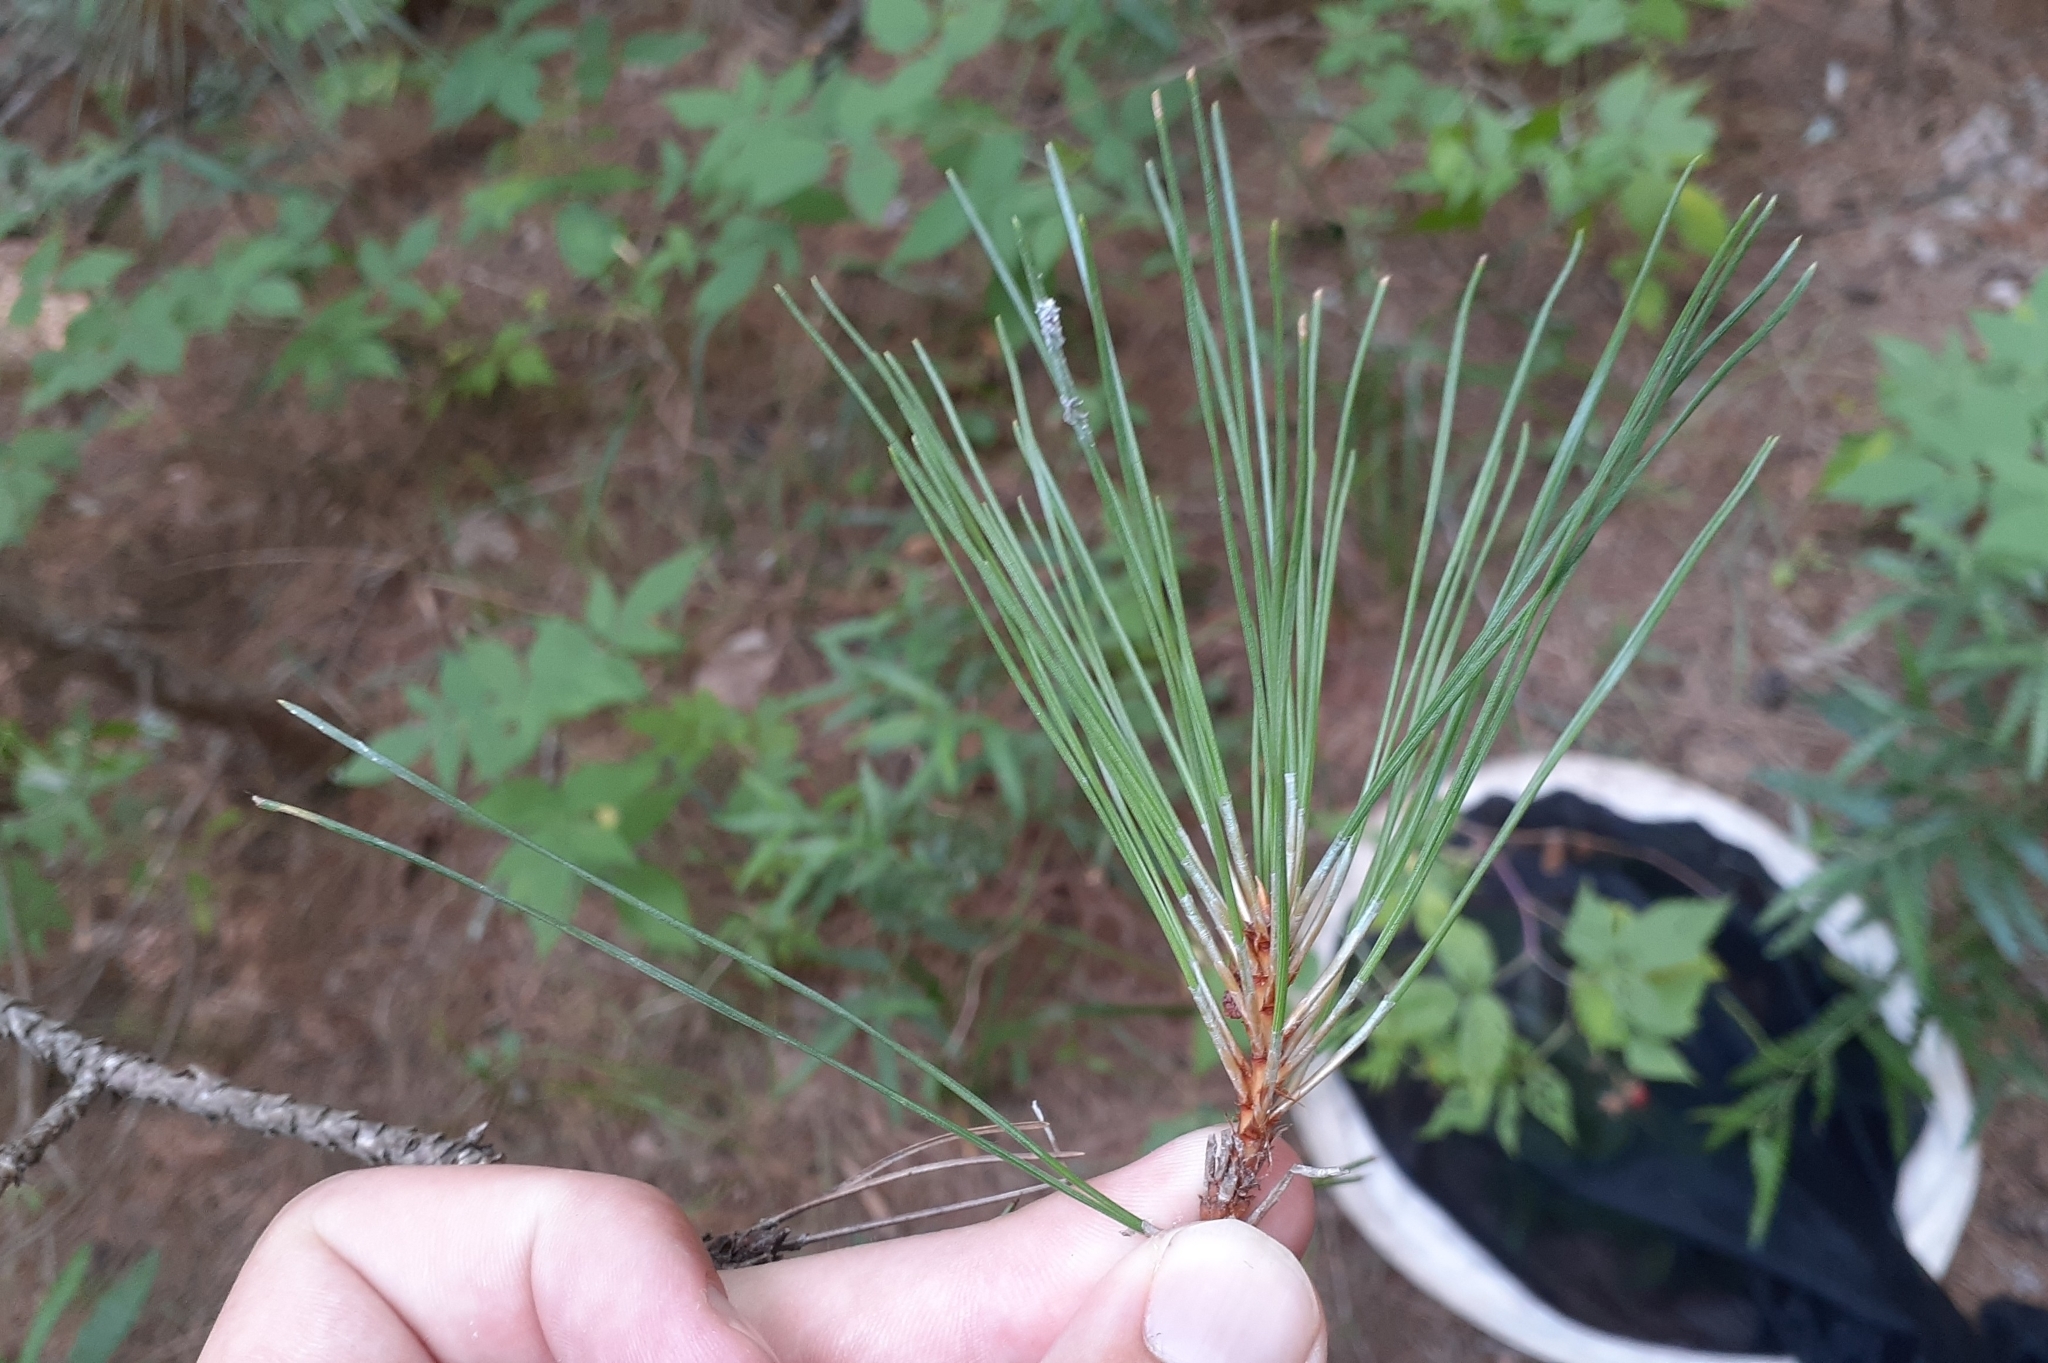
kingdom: Plantae
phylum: Tracheophyta
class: Pinopsida
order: Pinales
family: Pinaceae
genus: Pinus
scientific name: Pinus resinosa
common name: Norway pine
